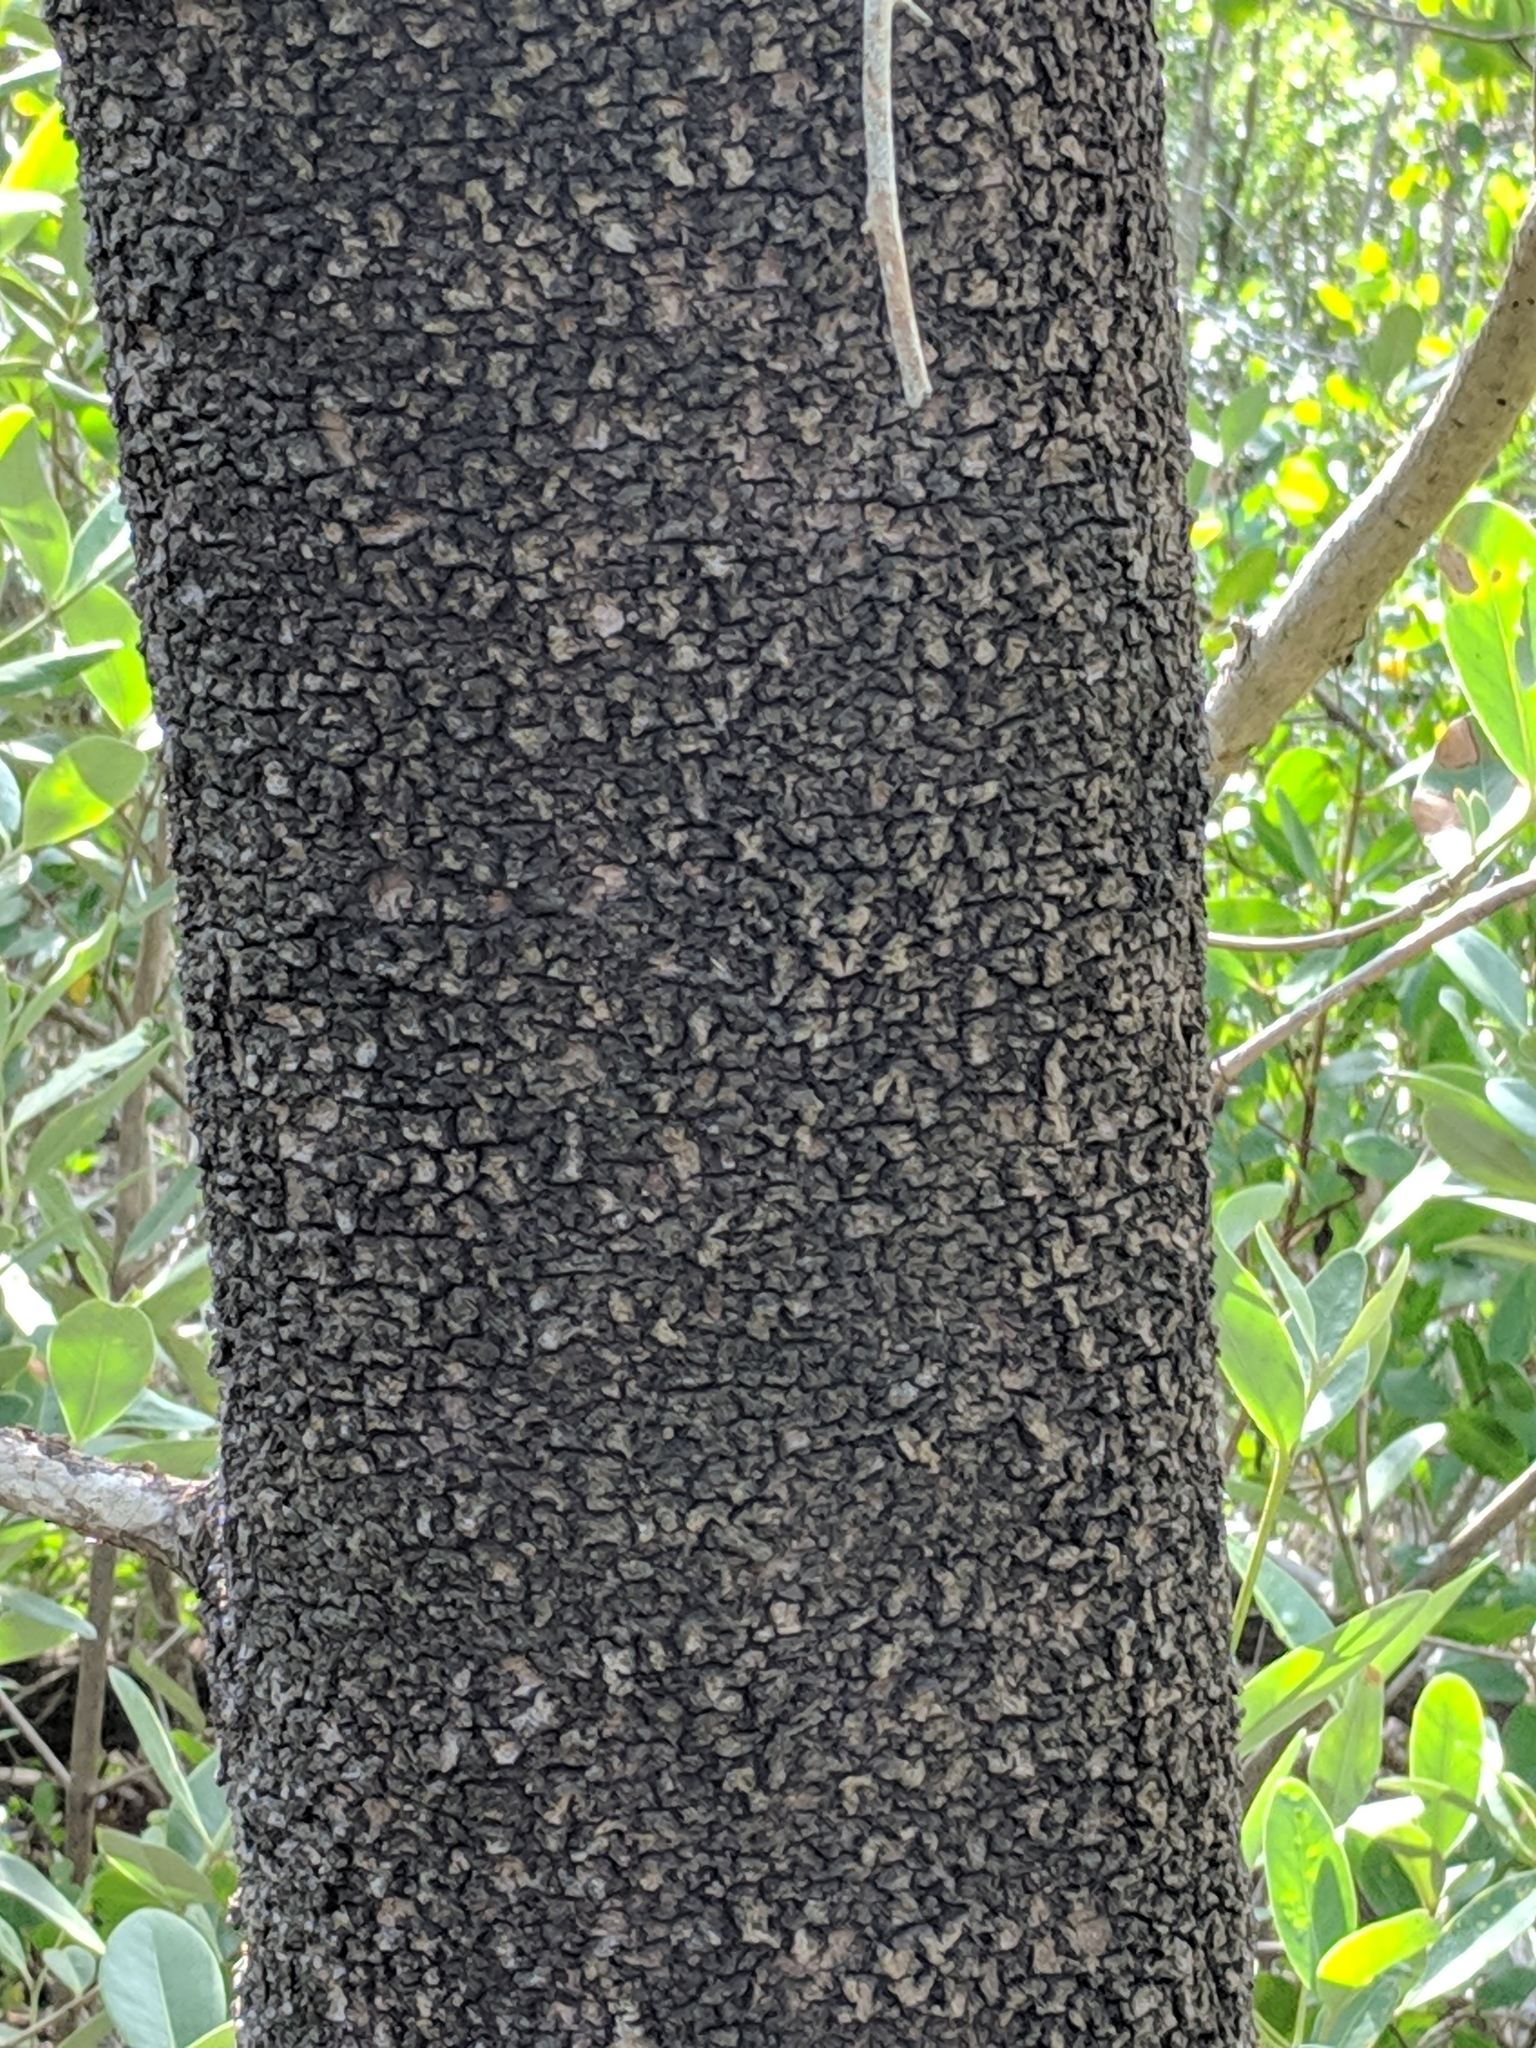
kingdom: Plantae
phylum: Tracheophyta
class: Magnoliopsida
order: Lamiales
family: Acanthaceae
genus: Avicennia
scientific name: Avicennia germinans
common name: Black mangrove
